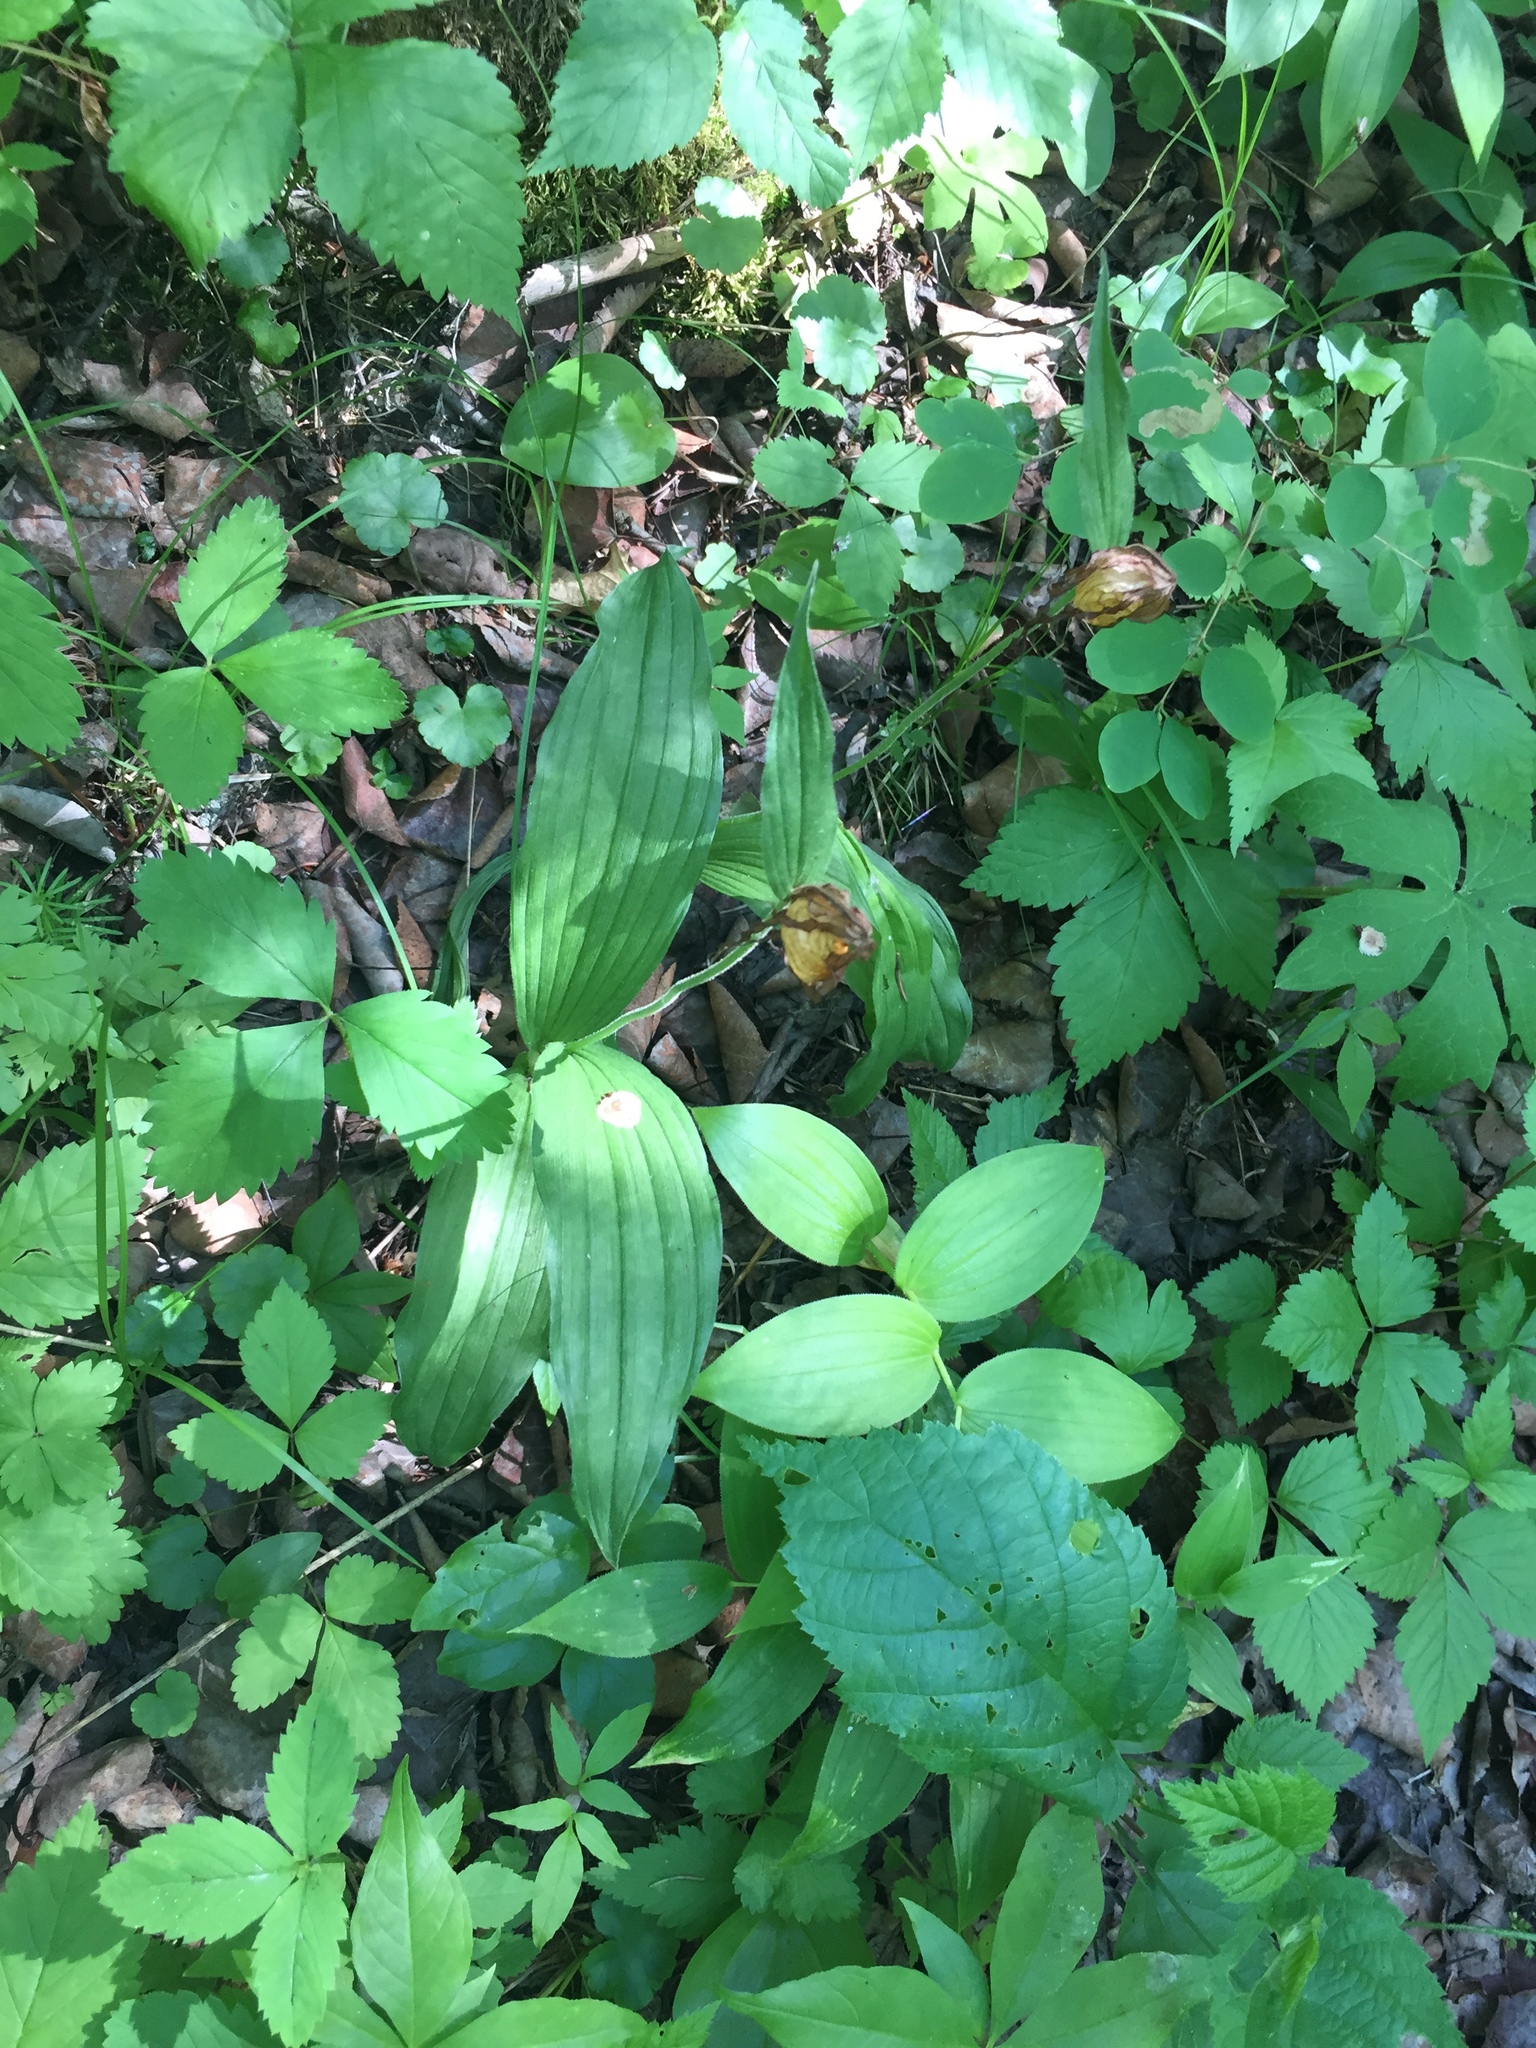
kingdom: Plantae
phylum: Tracheophyta
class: Liliopsida
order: Asparagales
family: Orchidaceae
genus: Cypripedium
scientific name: Cypripedium parviflorum
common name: American yellow lady's-slipper
